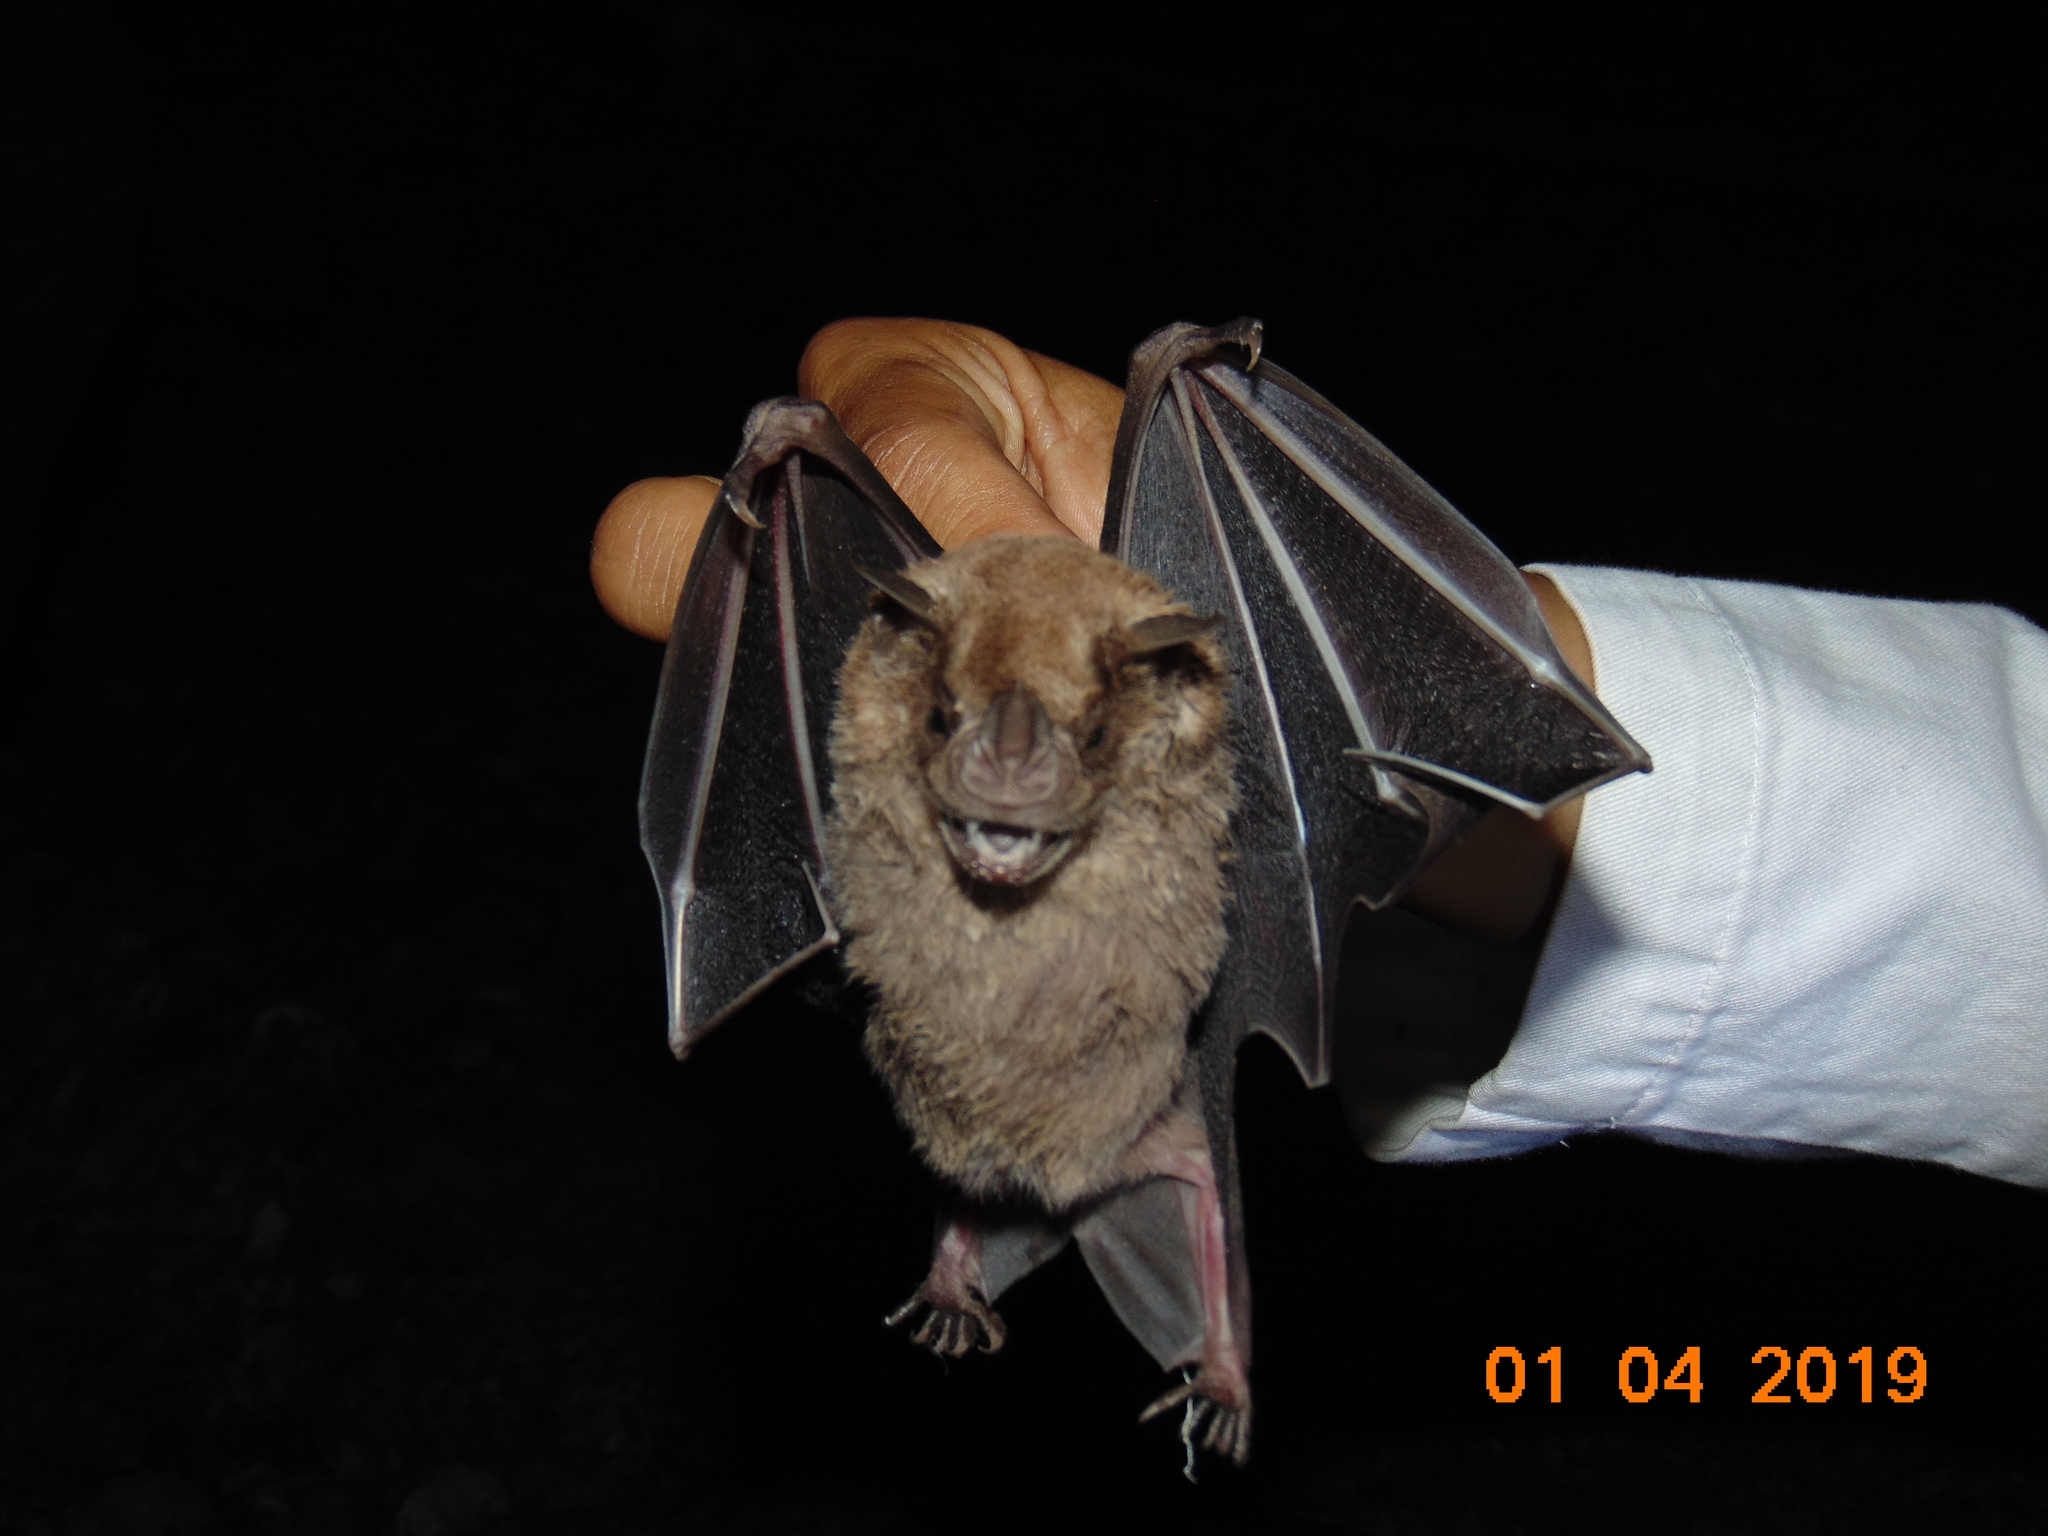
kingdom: Animalia
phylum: Chordata
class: Mammalia
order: Chiroptera
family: Phyllostomidae
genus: Artibeus
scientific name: Artibeus jamaicensis
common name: Jamaican fruit-eating bat
